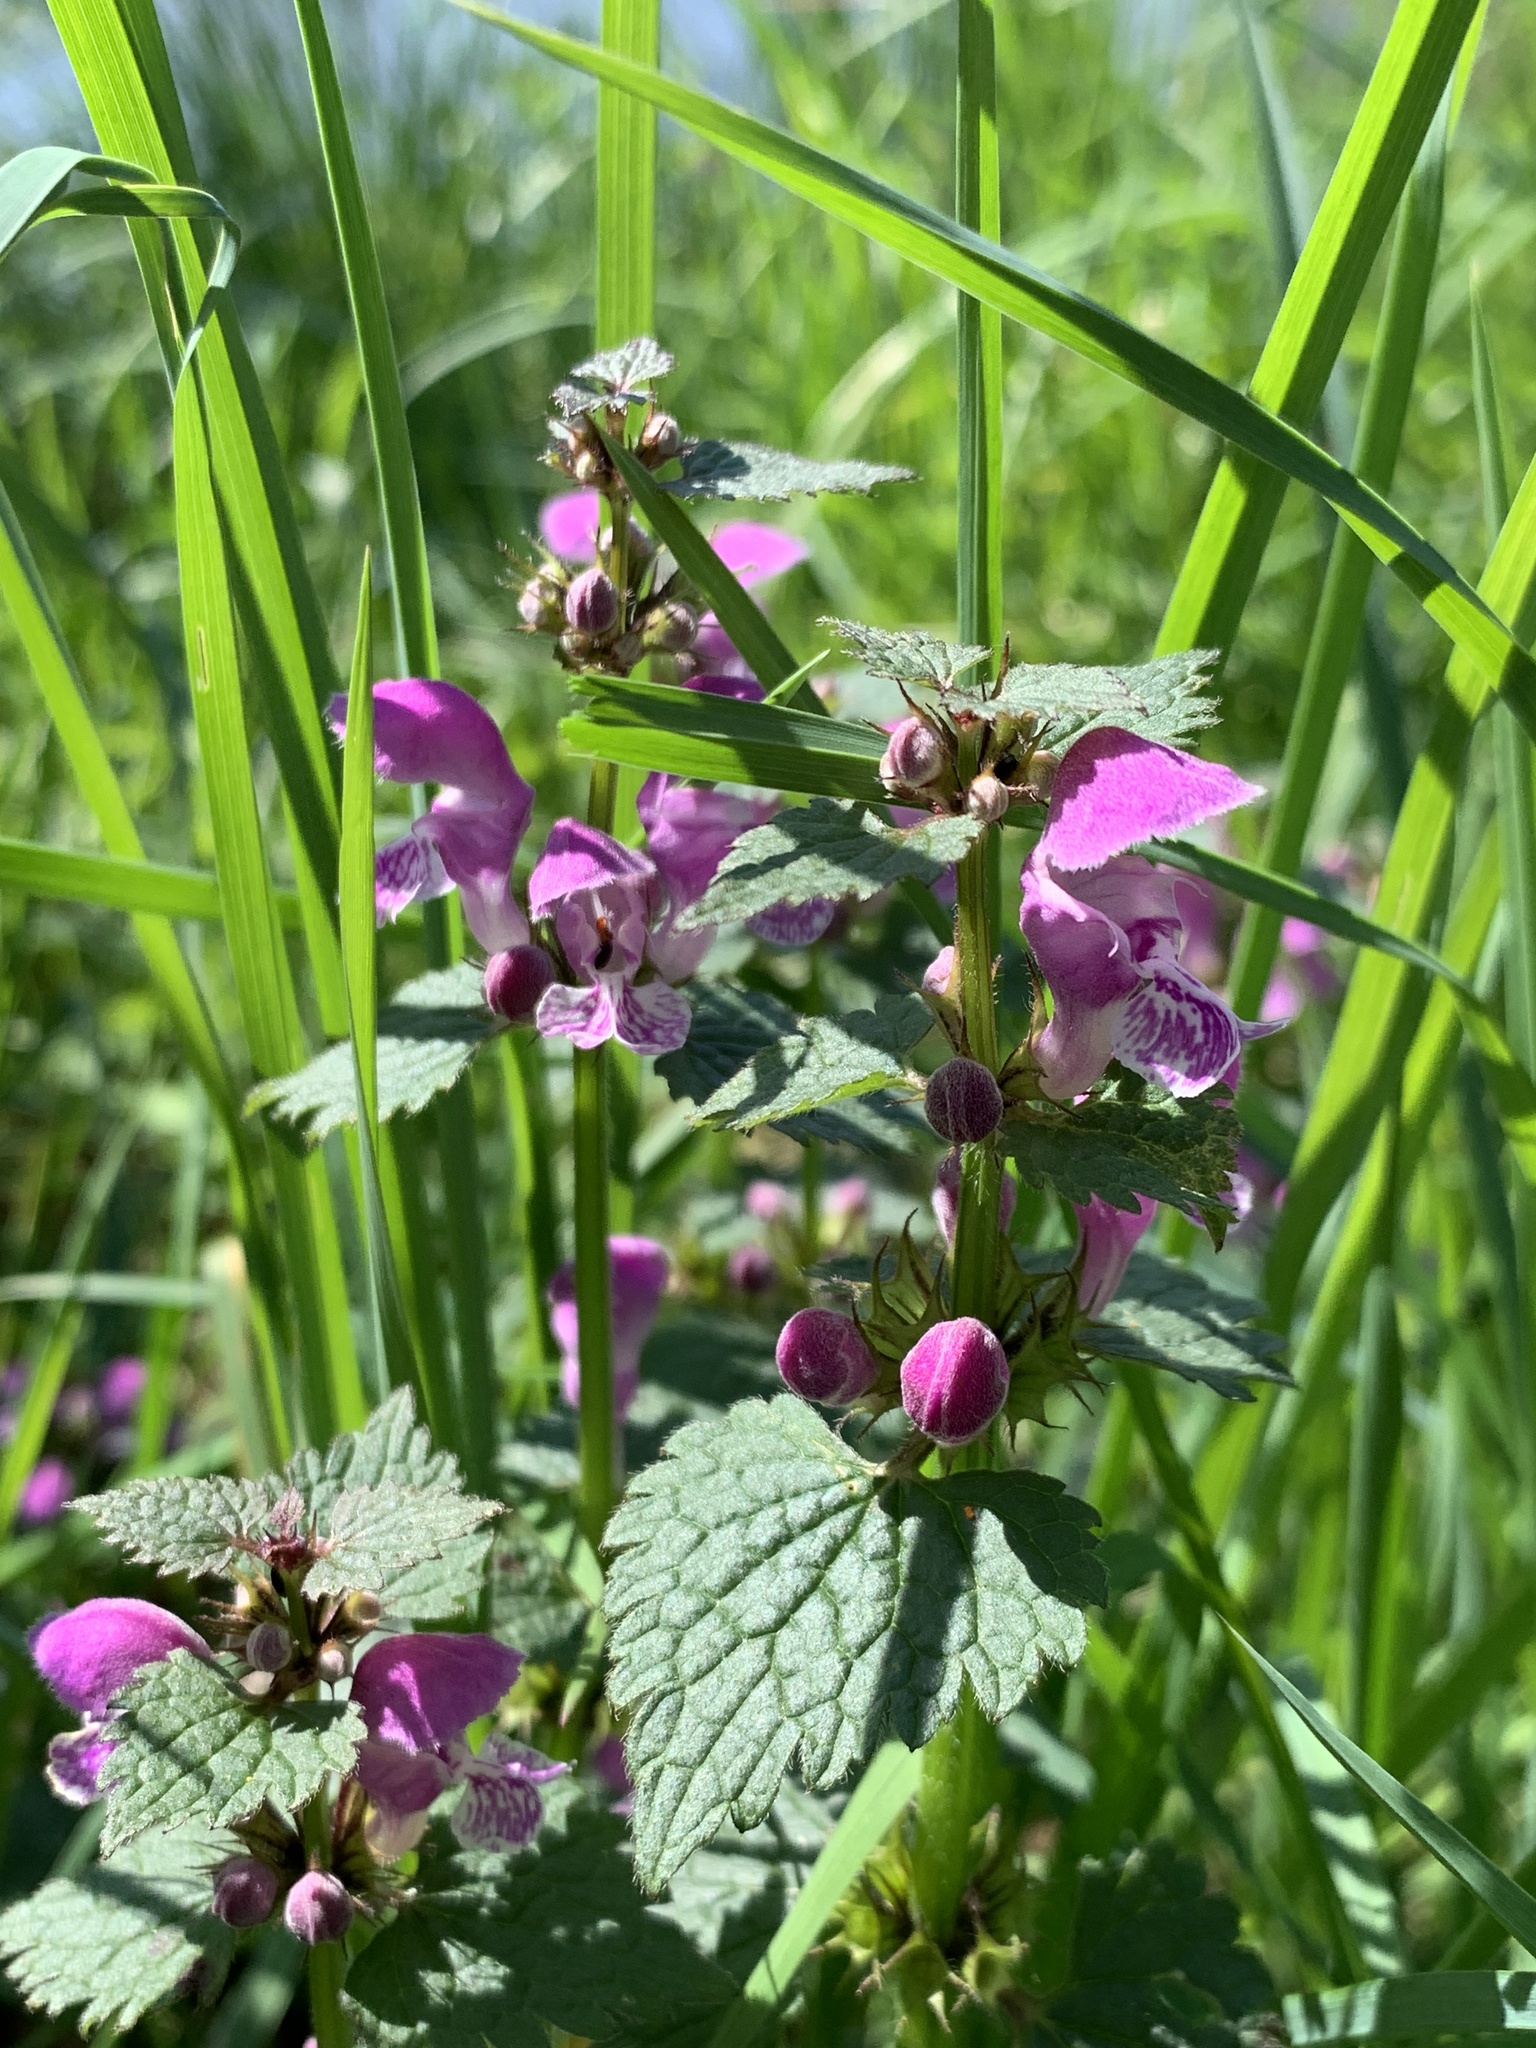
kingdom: Plantae
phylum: Tracheophyta
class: Magnoliopsida
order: Lamiales
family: Lamiaceae
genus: Lamium
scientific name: Lamium maculatum
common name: Spotted dead-nettle
